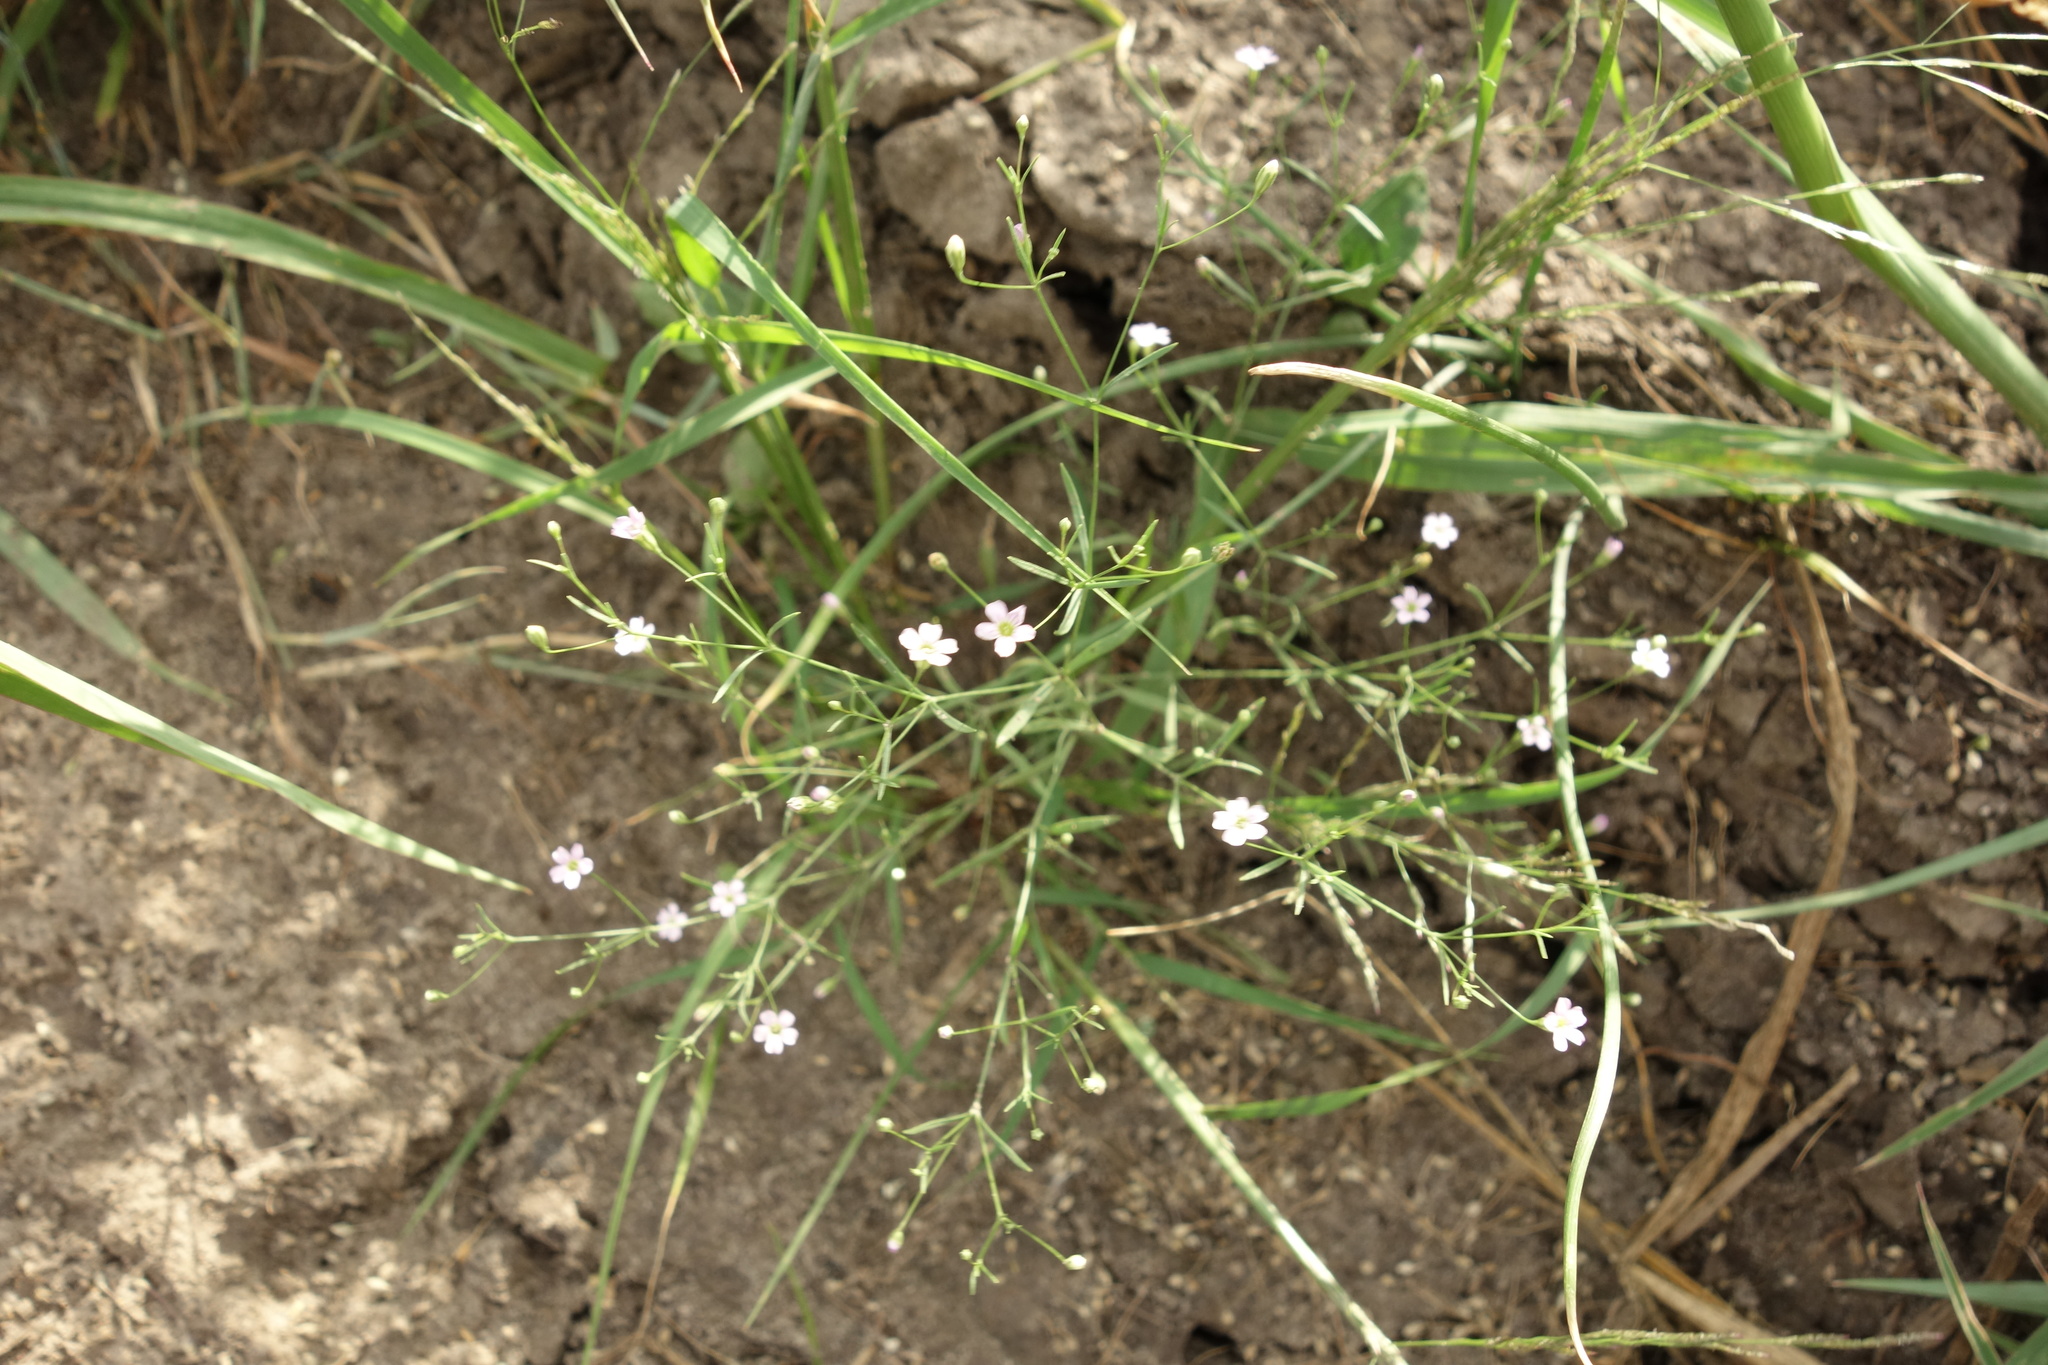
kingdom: Plantae
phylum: Tracheophyta
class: Magnoliopsida
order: Caryophyllales
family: Caryophyllaceae
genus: Psammophiliella
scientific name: Psammophiliella muralis
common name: Cushion baby's-breath
